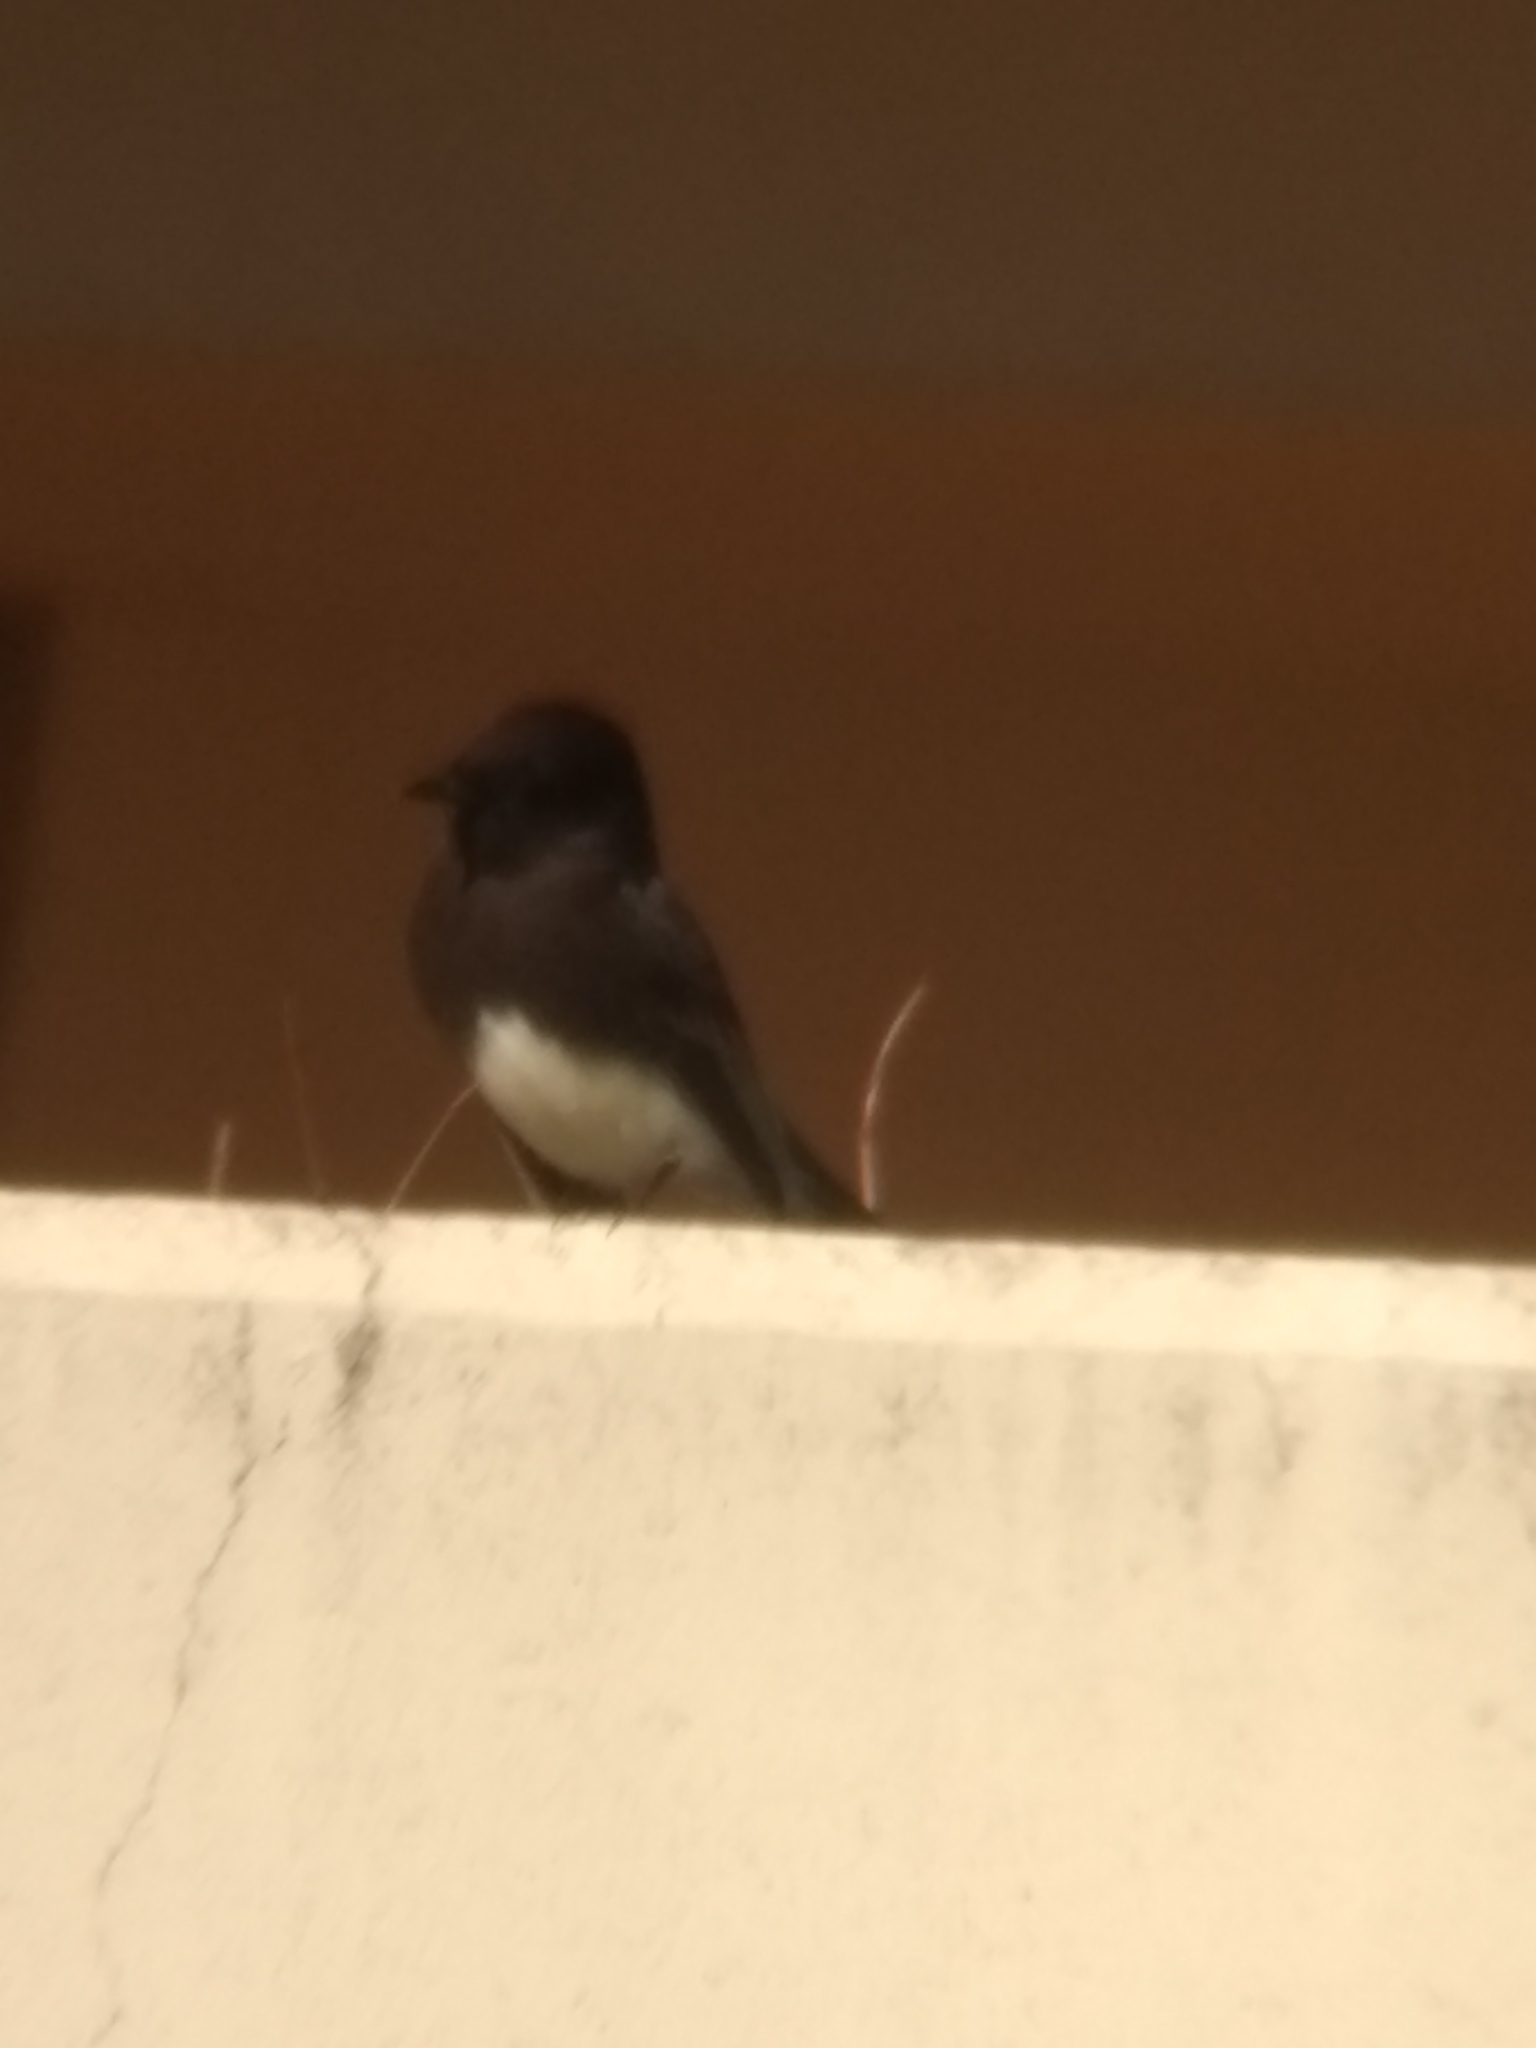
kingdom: Animalia
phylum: Chordata
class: Aves
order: Passeriformes
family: Tyrannidae
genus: Sayornis
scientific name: Sayornis nigricans
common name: Black phoebe
